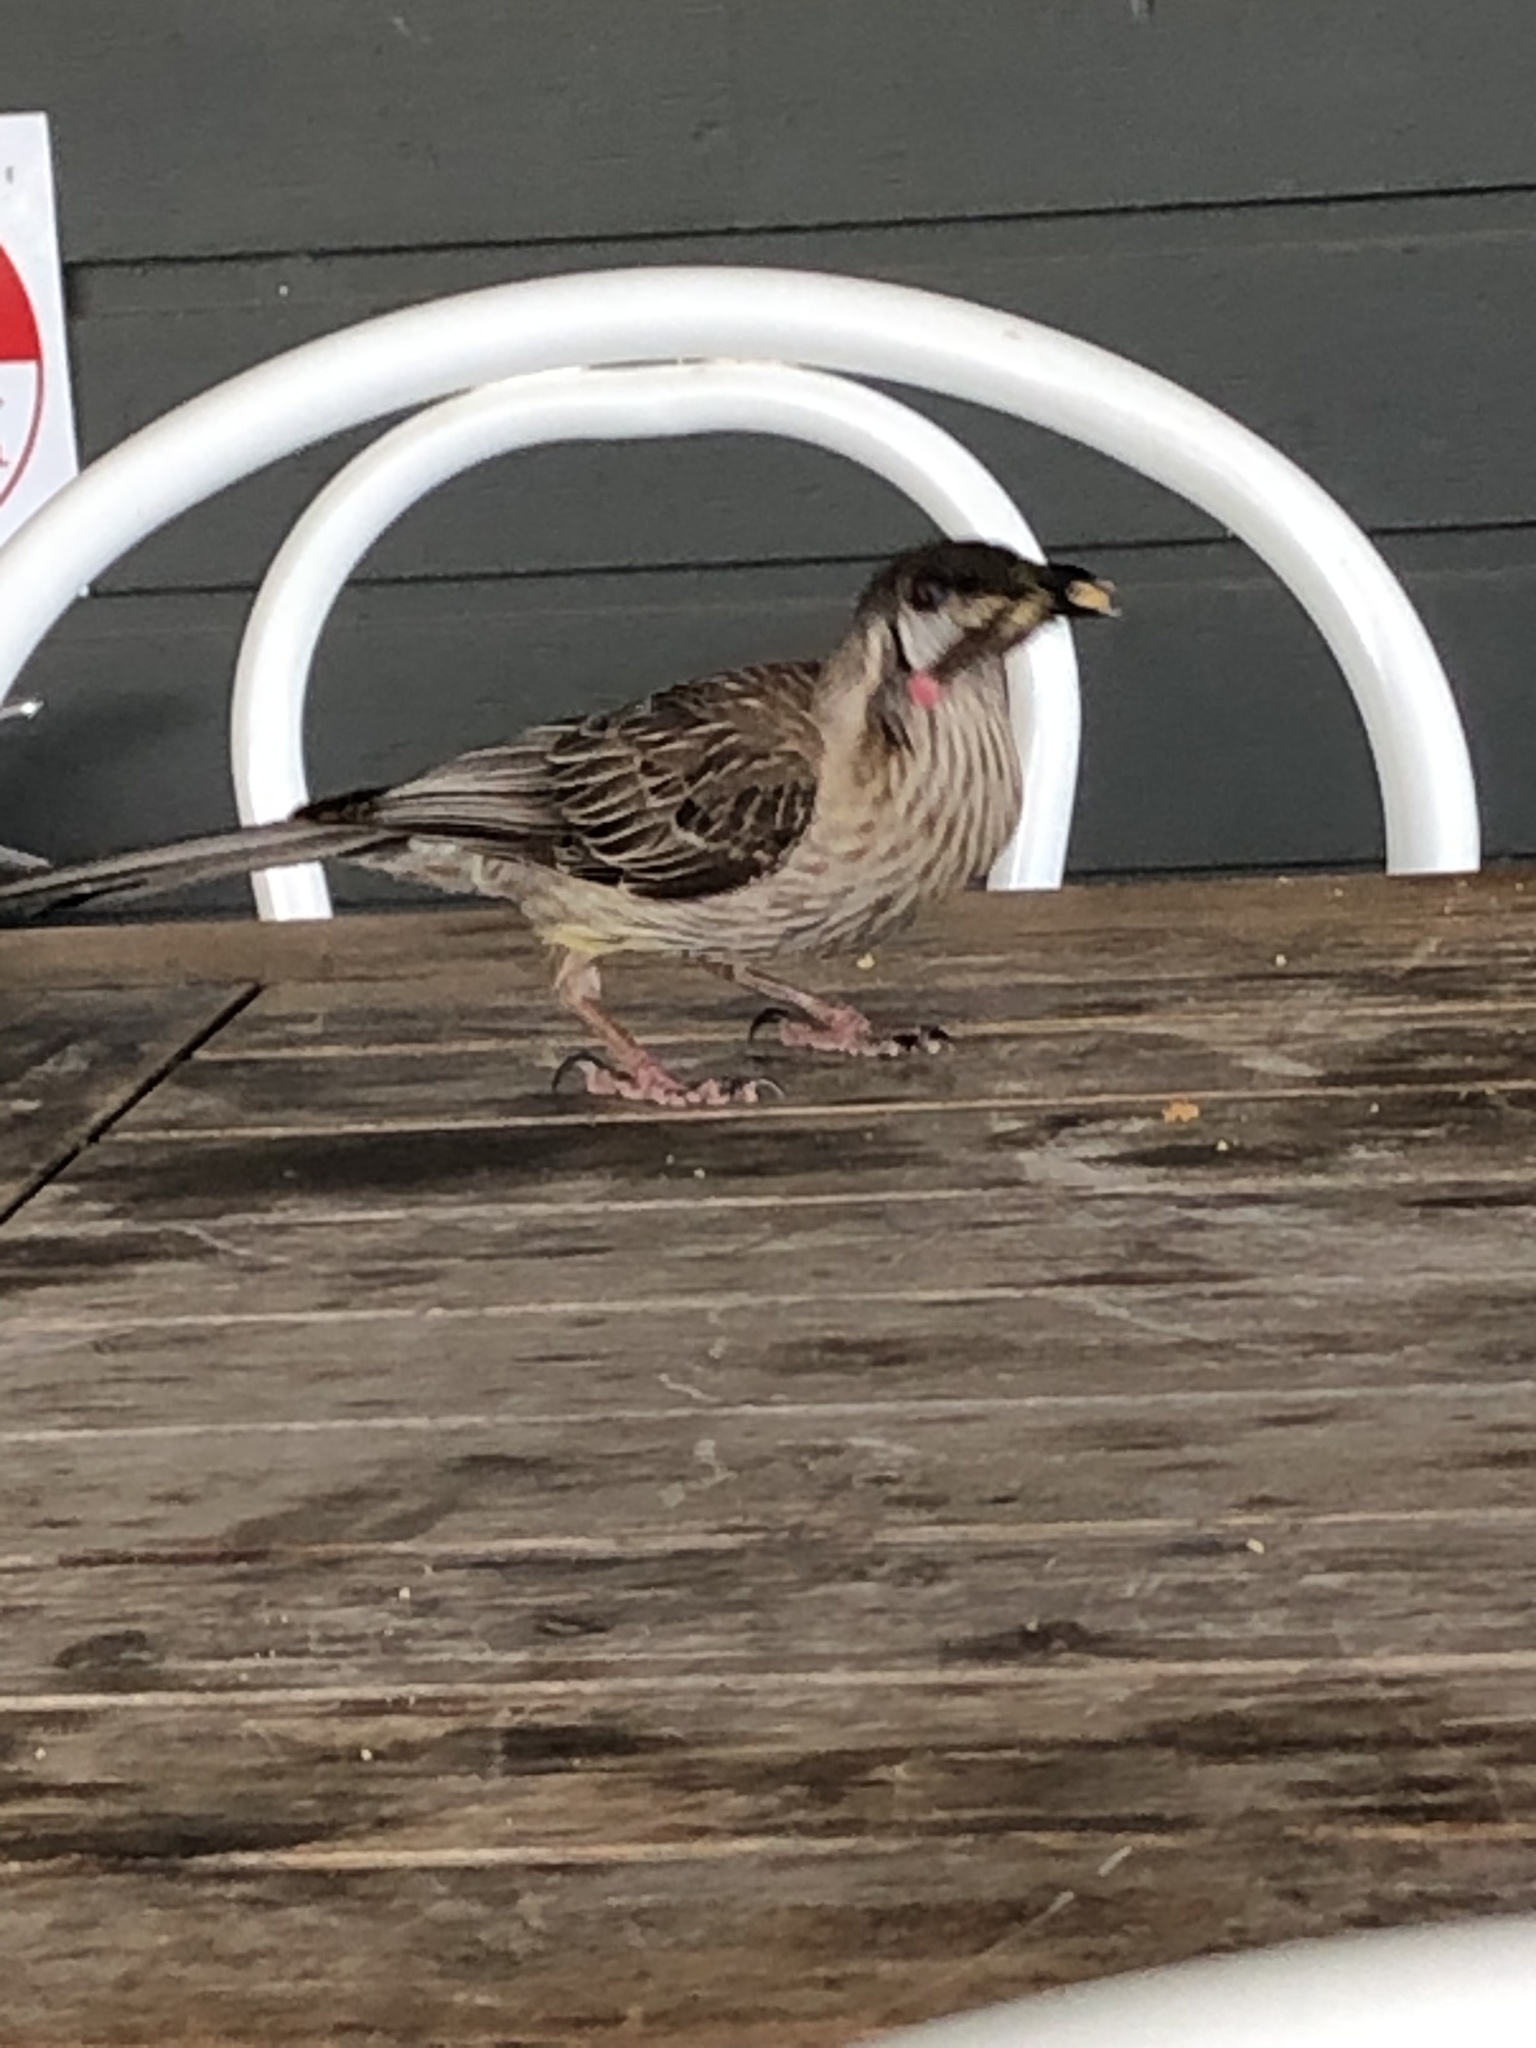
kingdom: Animalia
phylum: Chordata
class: Aves
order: Passeriformes
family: Meliphagidae
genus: Anthochaera
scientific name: Anthochaera carunculata
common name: Red wattlebird
